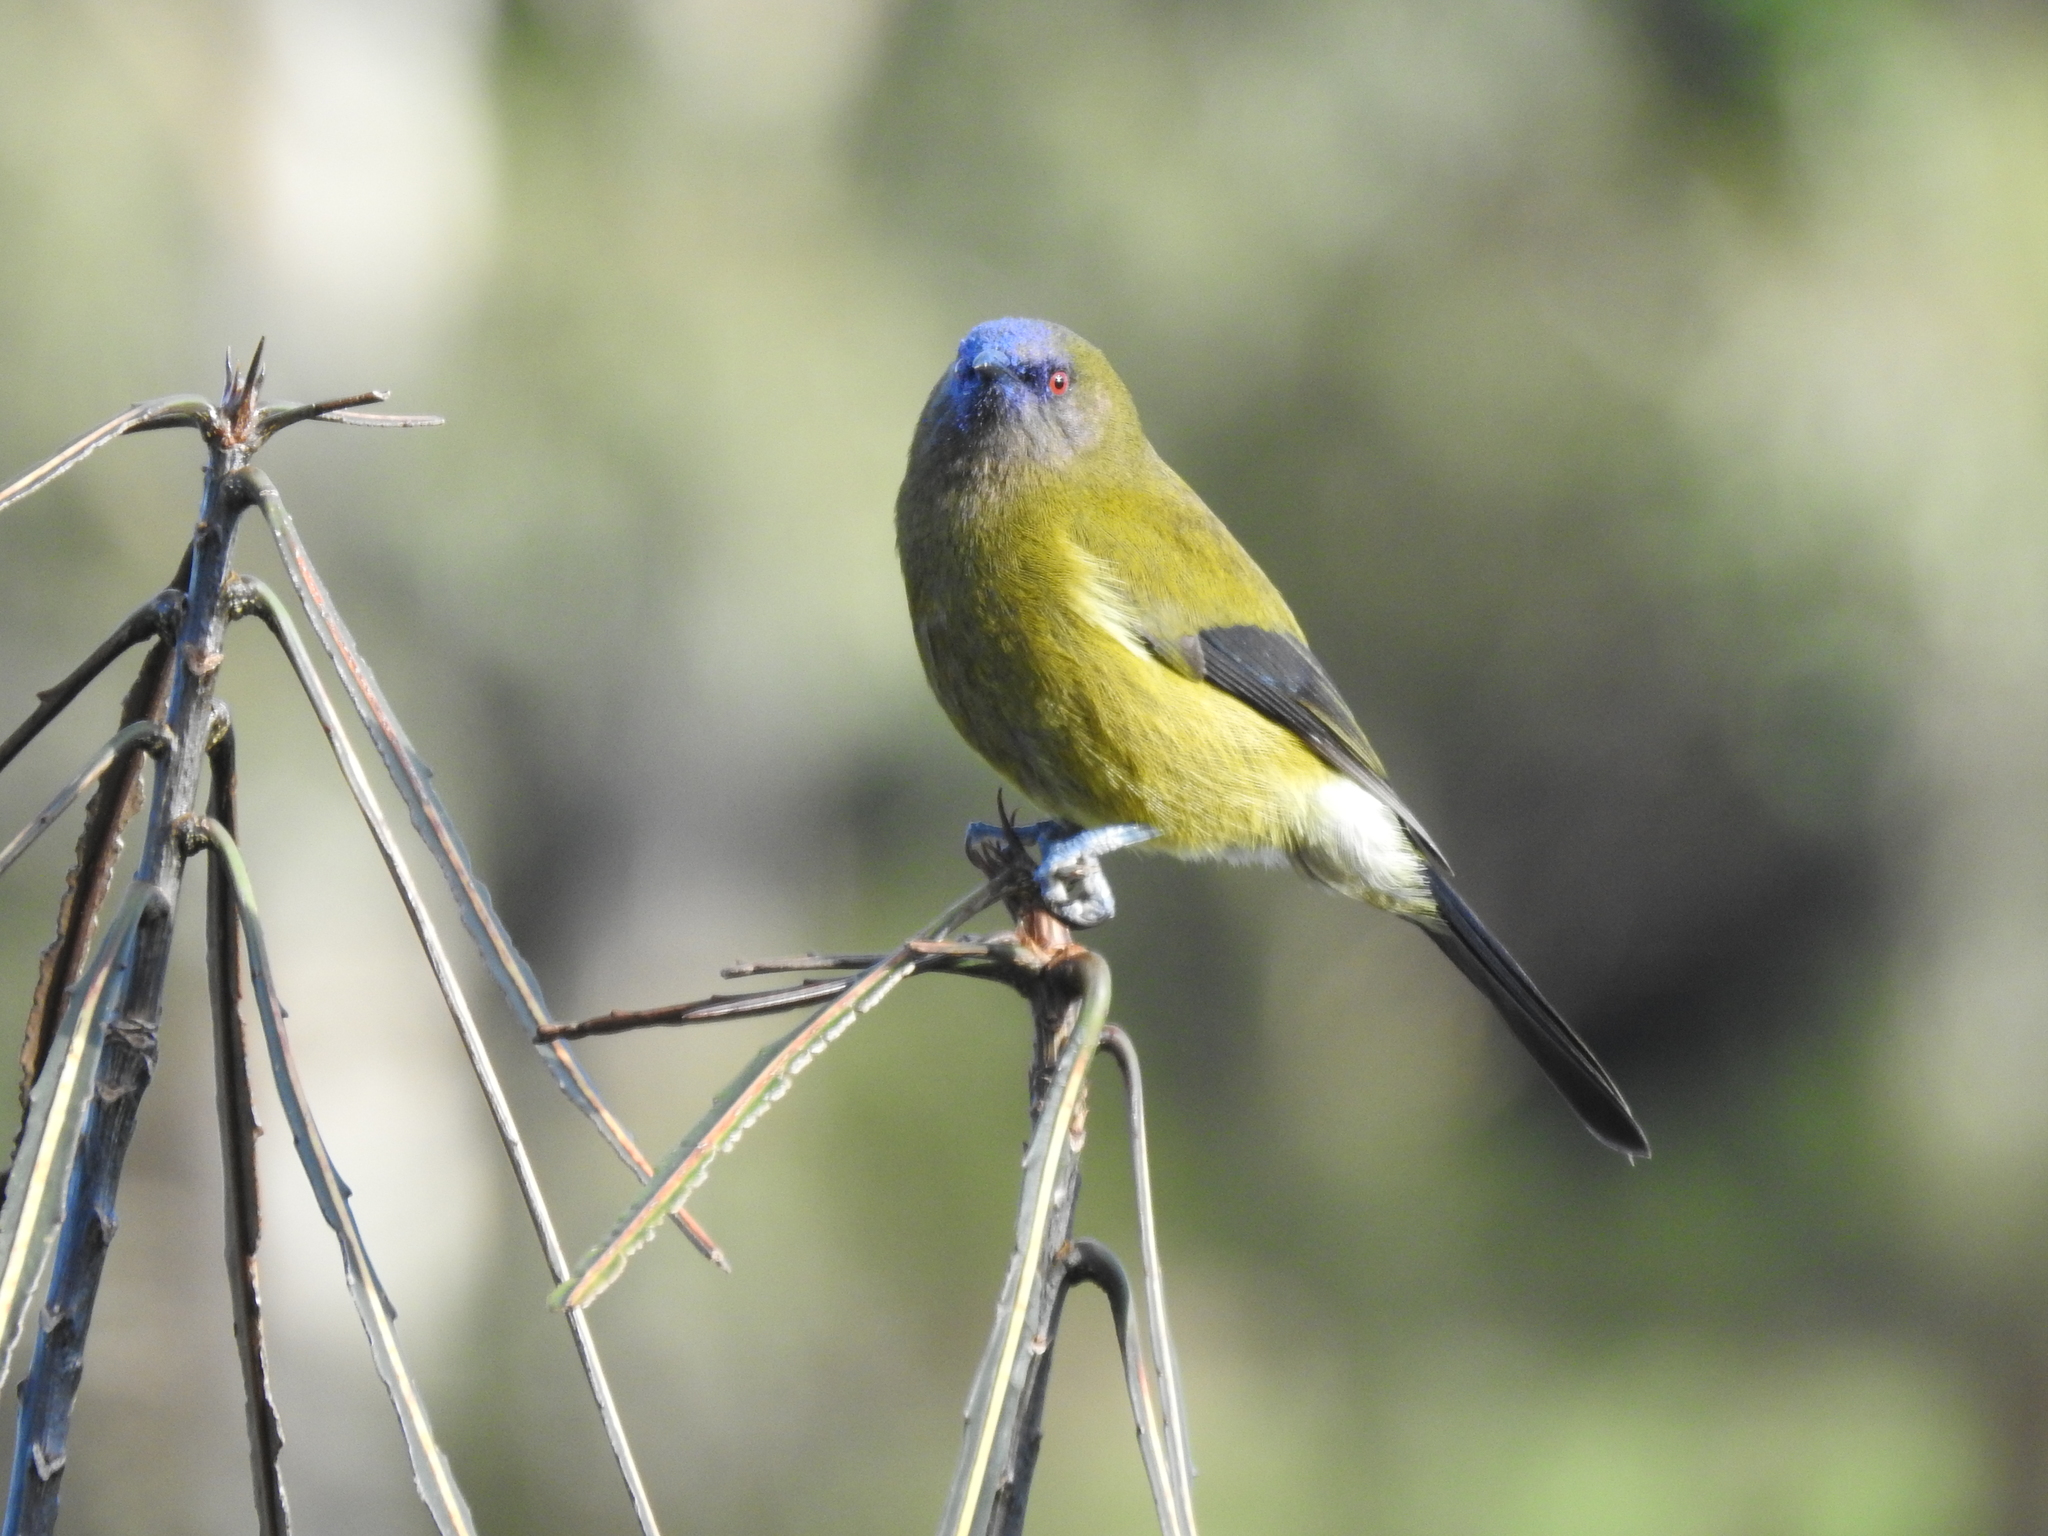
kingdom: Animalia
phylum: Chordata
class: Aves
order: Passeriformes
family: Meliphagidae
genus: Anthornis
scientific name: Anthornis melanura
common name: New zealand bellbird
